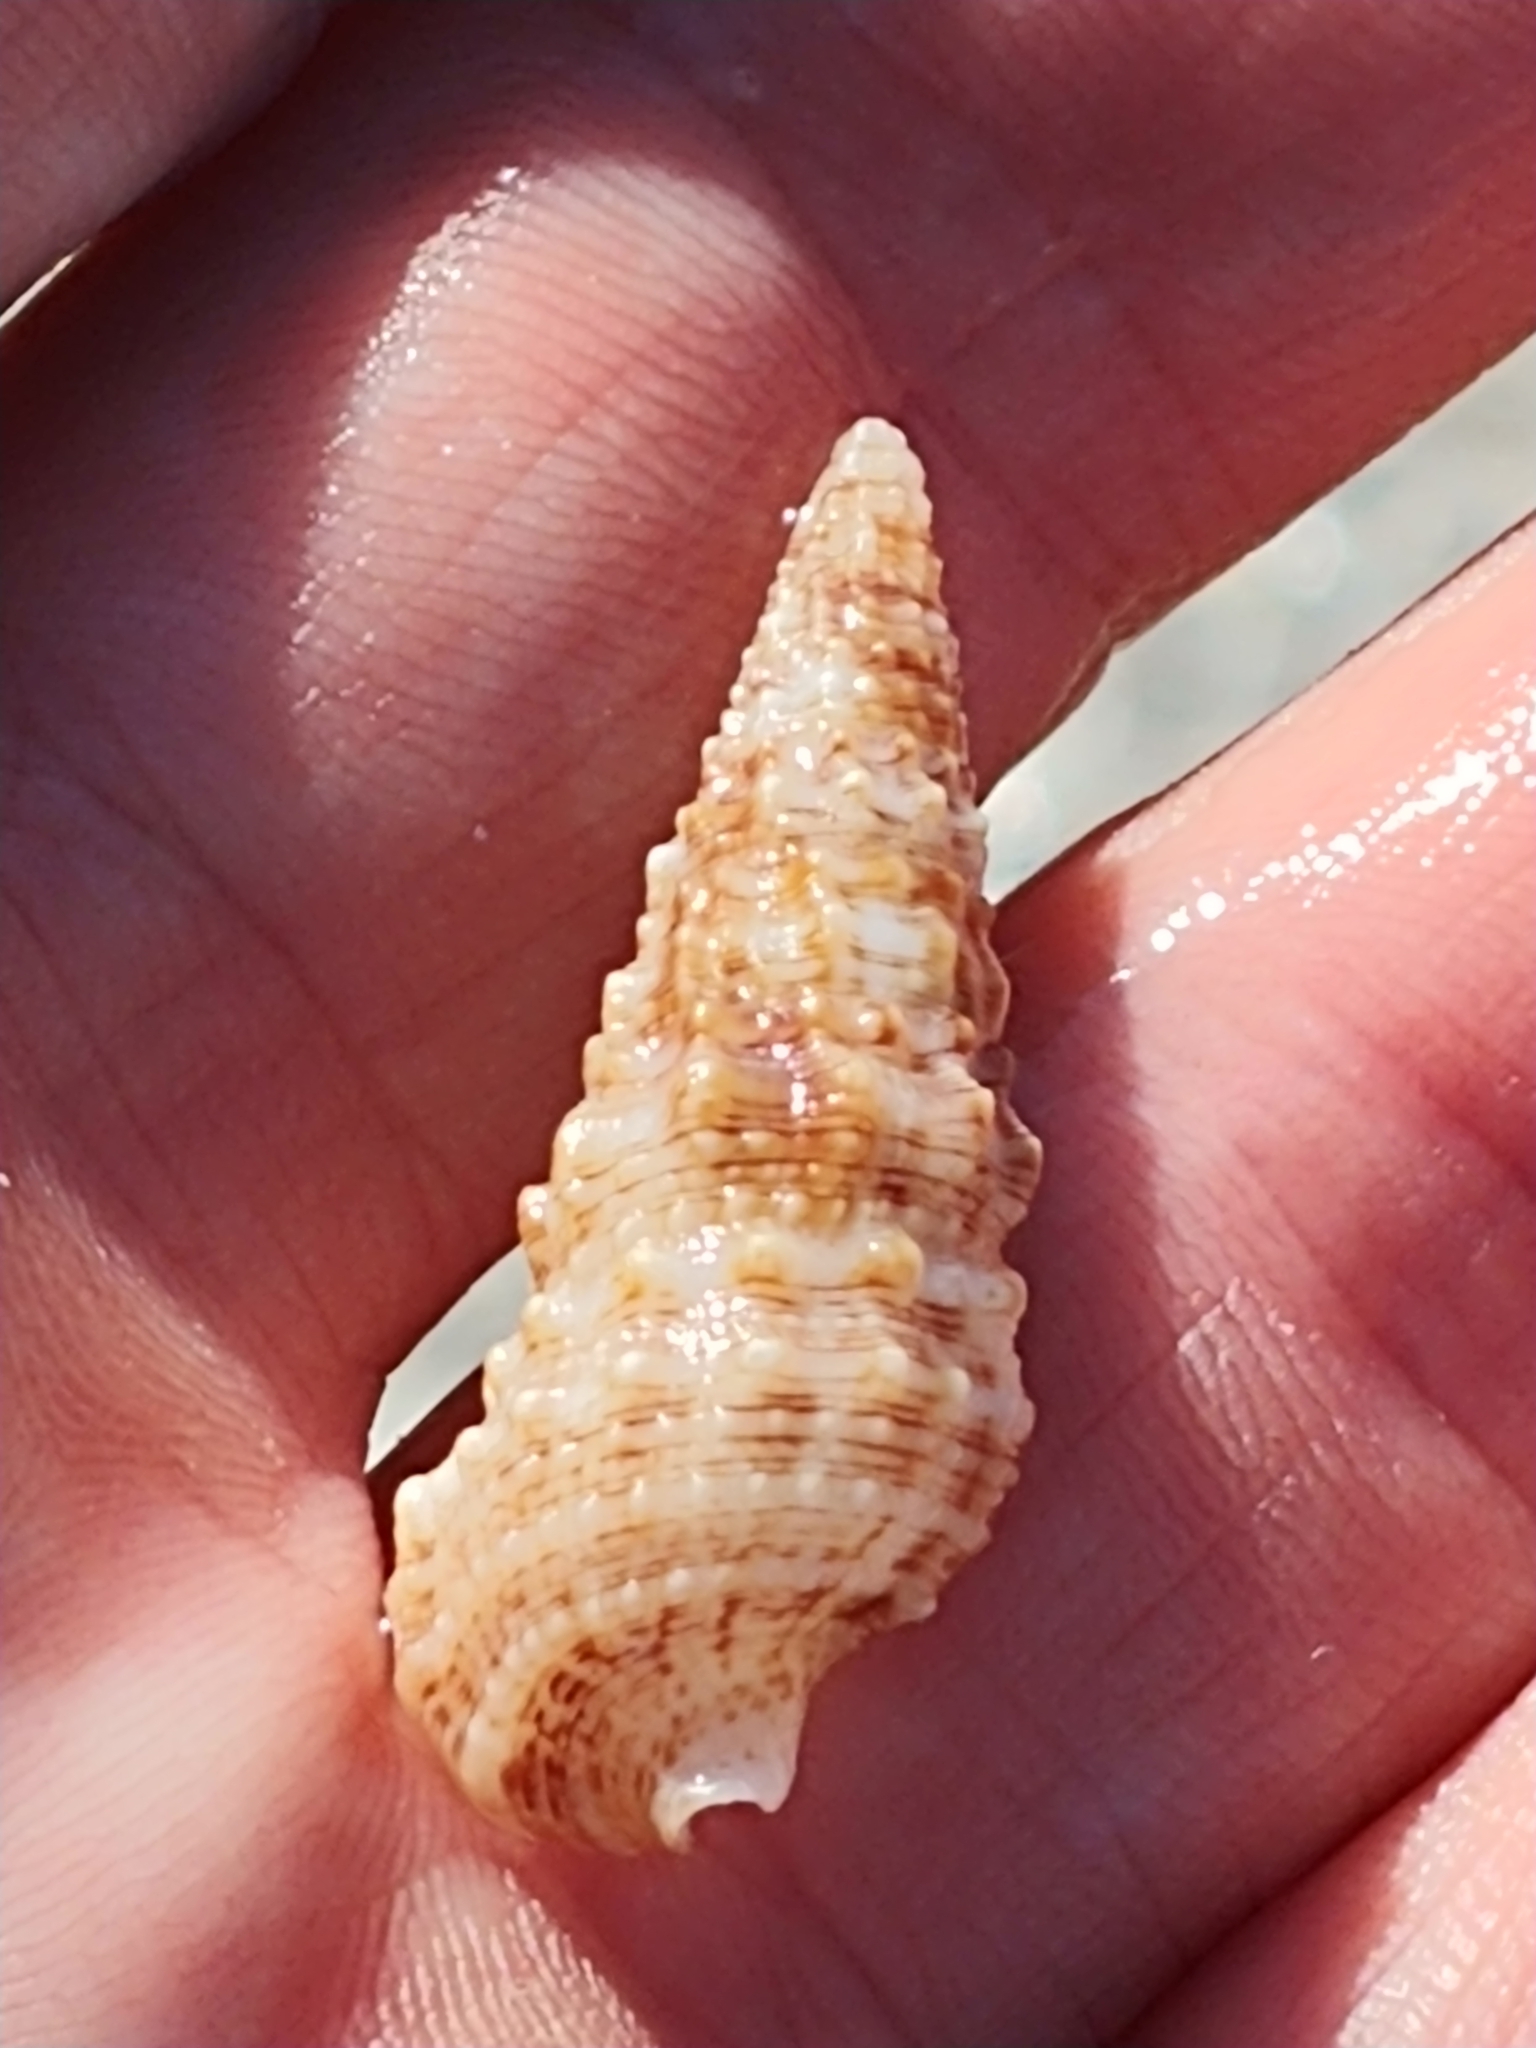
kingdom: Animalia
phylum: Mollusca
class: Gastropoda
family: Cerithiidae
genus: Cerithium
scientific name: Cerithium atratum
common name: Dark cerith
